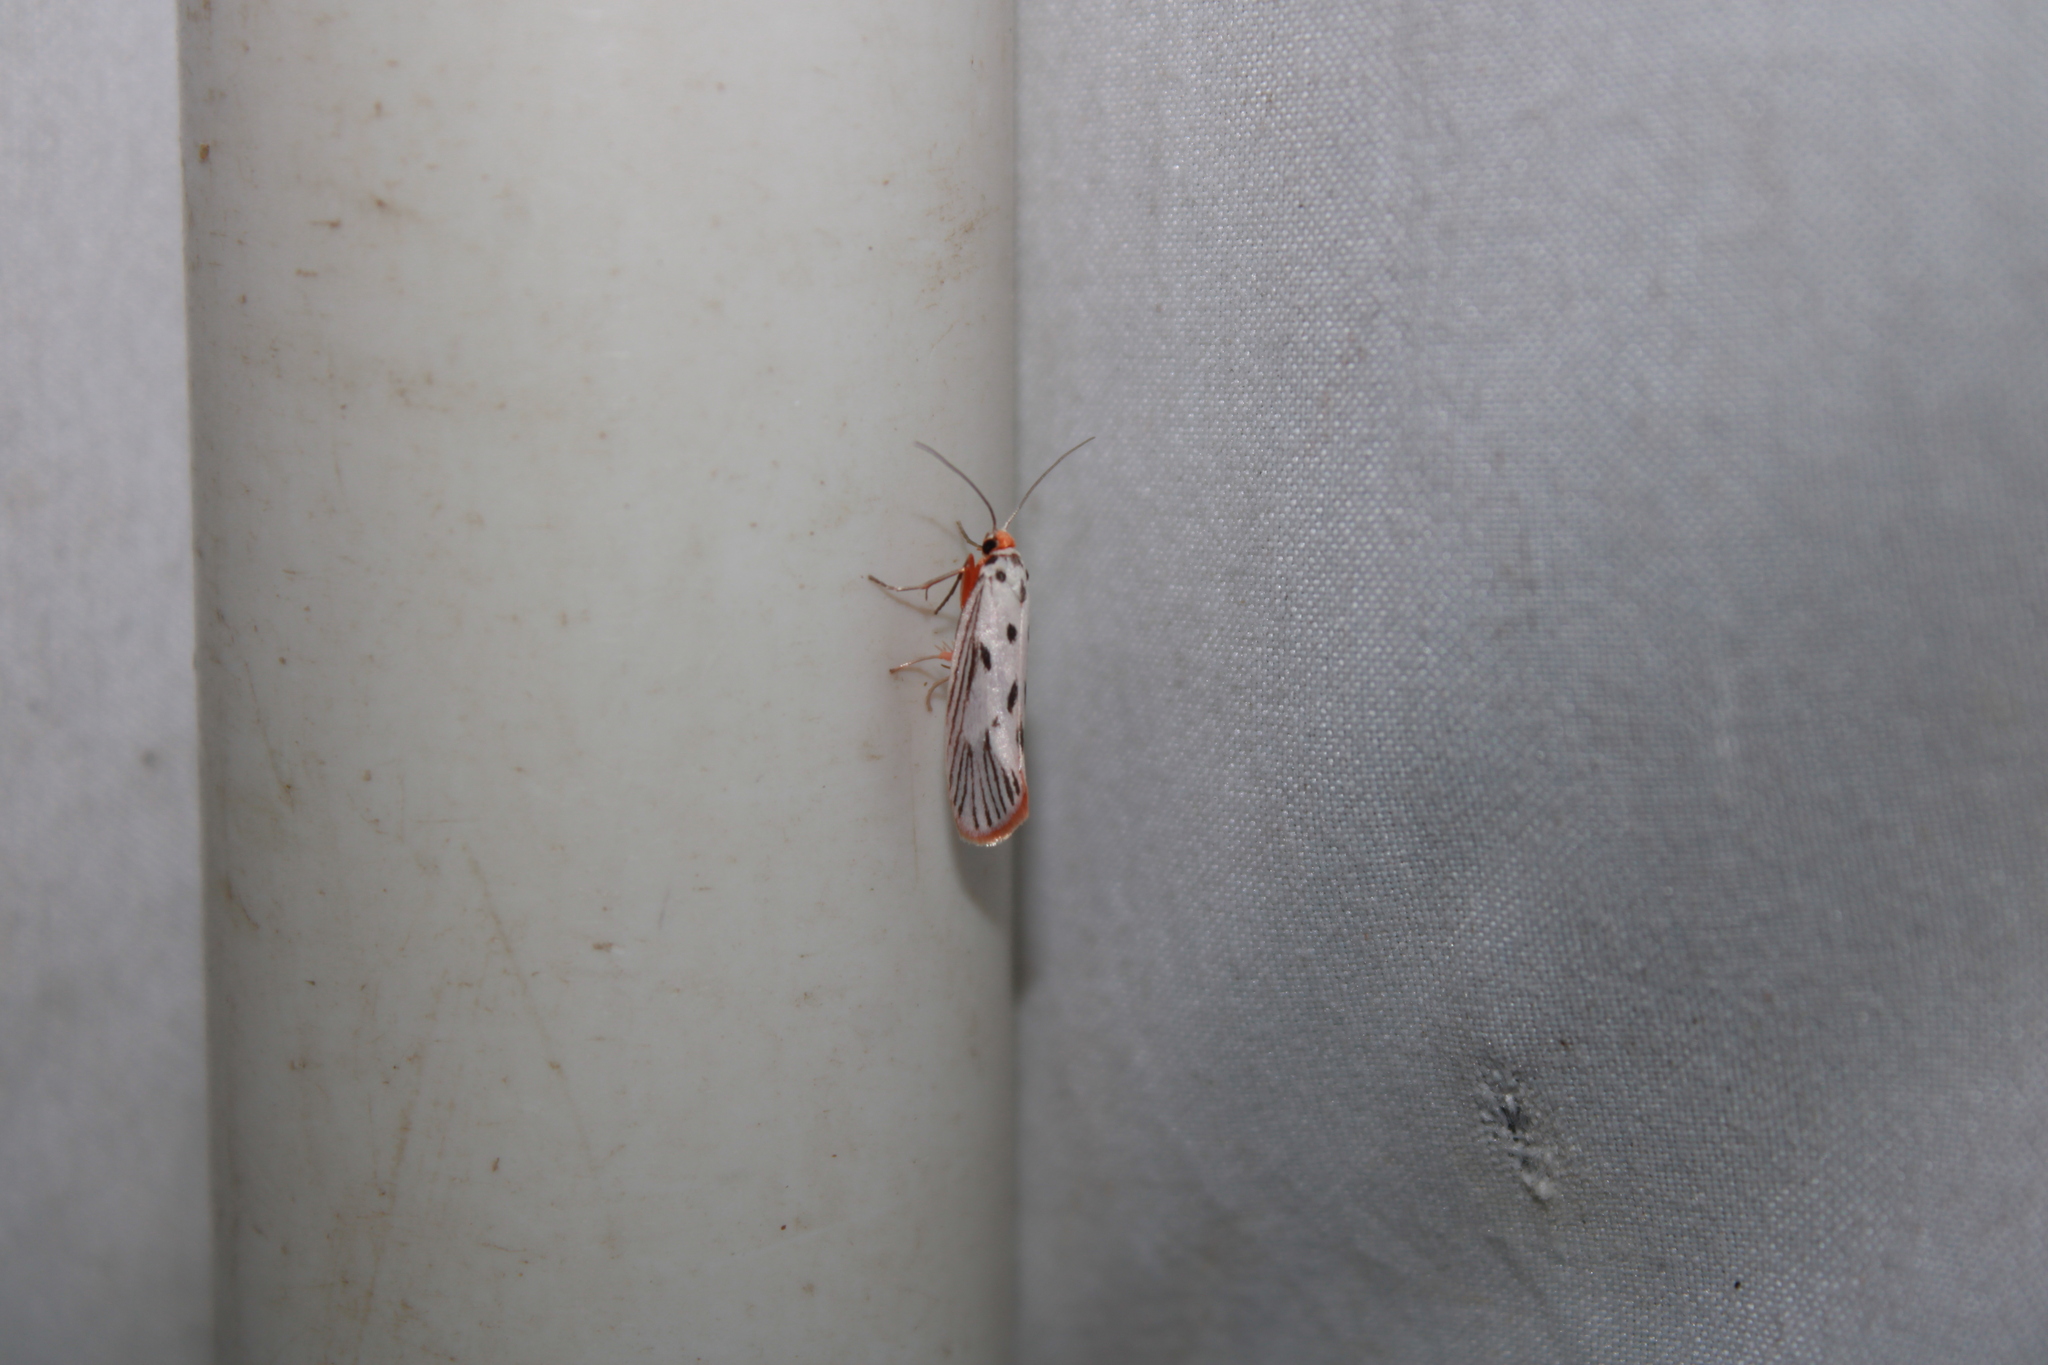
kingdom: Animalia
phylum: Arthropoda
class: Insecta
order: Lepidoptera
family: Lacturidae
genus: Lactura
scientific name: Lactura
